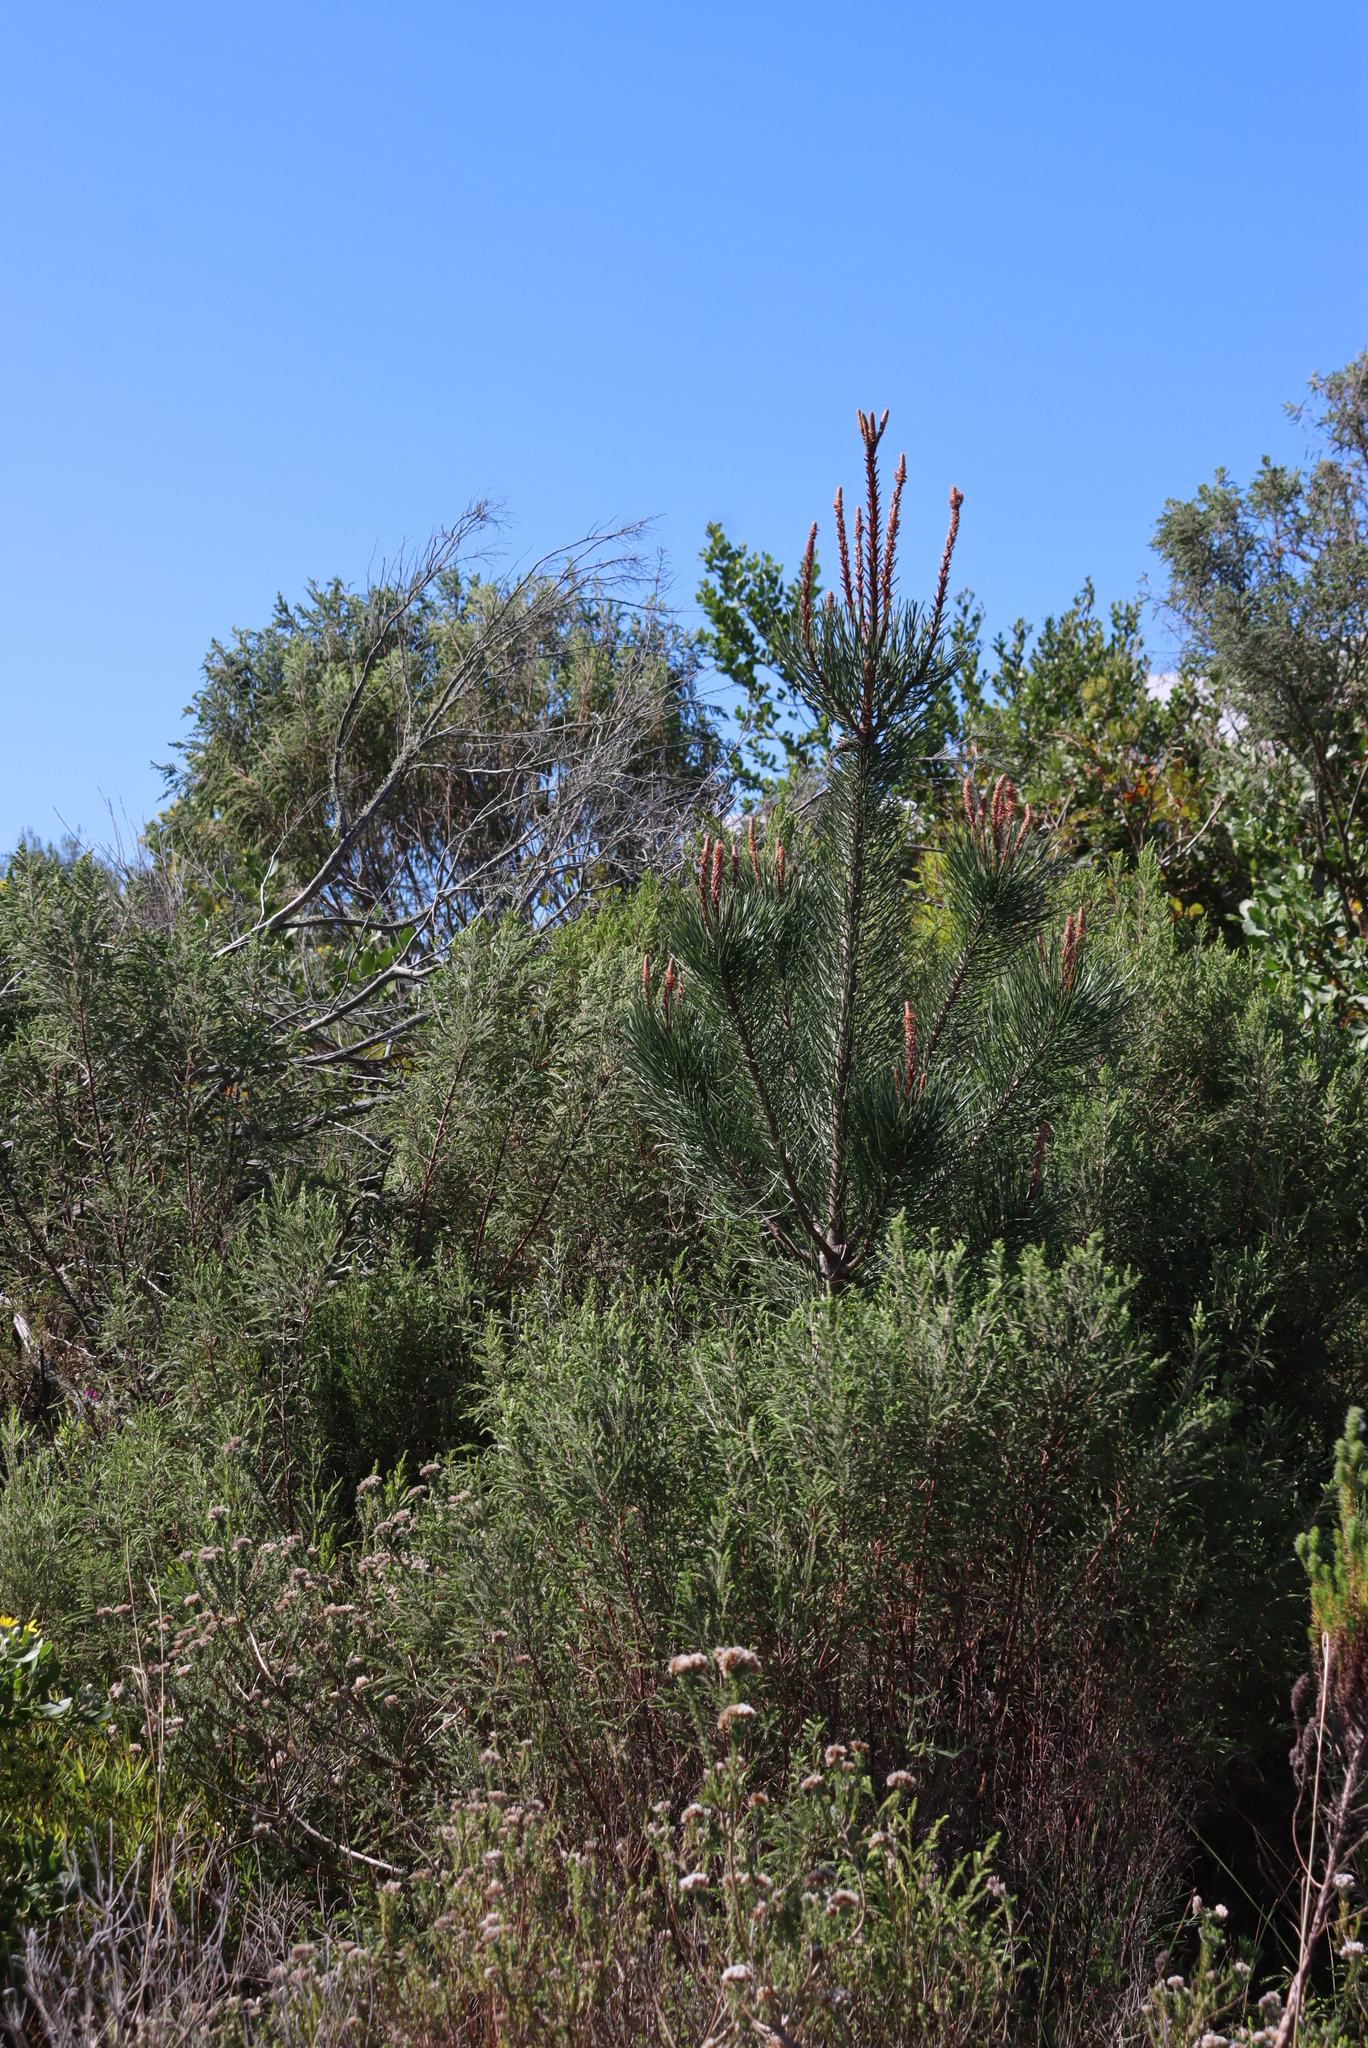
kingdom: Plantae
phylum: Tracheophyta
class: Pinopsida
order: Pinales
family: Pinaceae
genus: Pinus
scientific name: Pinus pinaster
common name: Maritime pine
